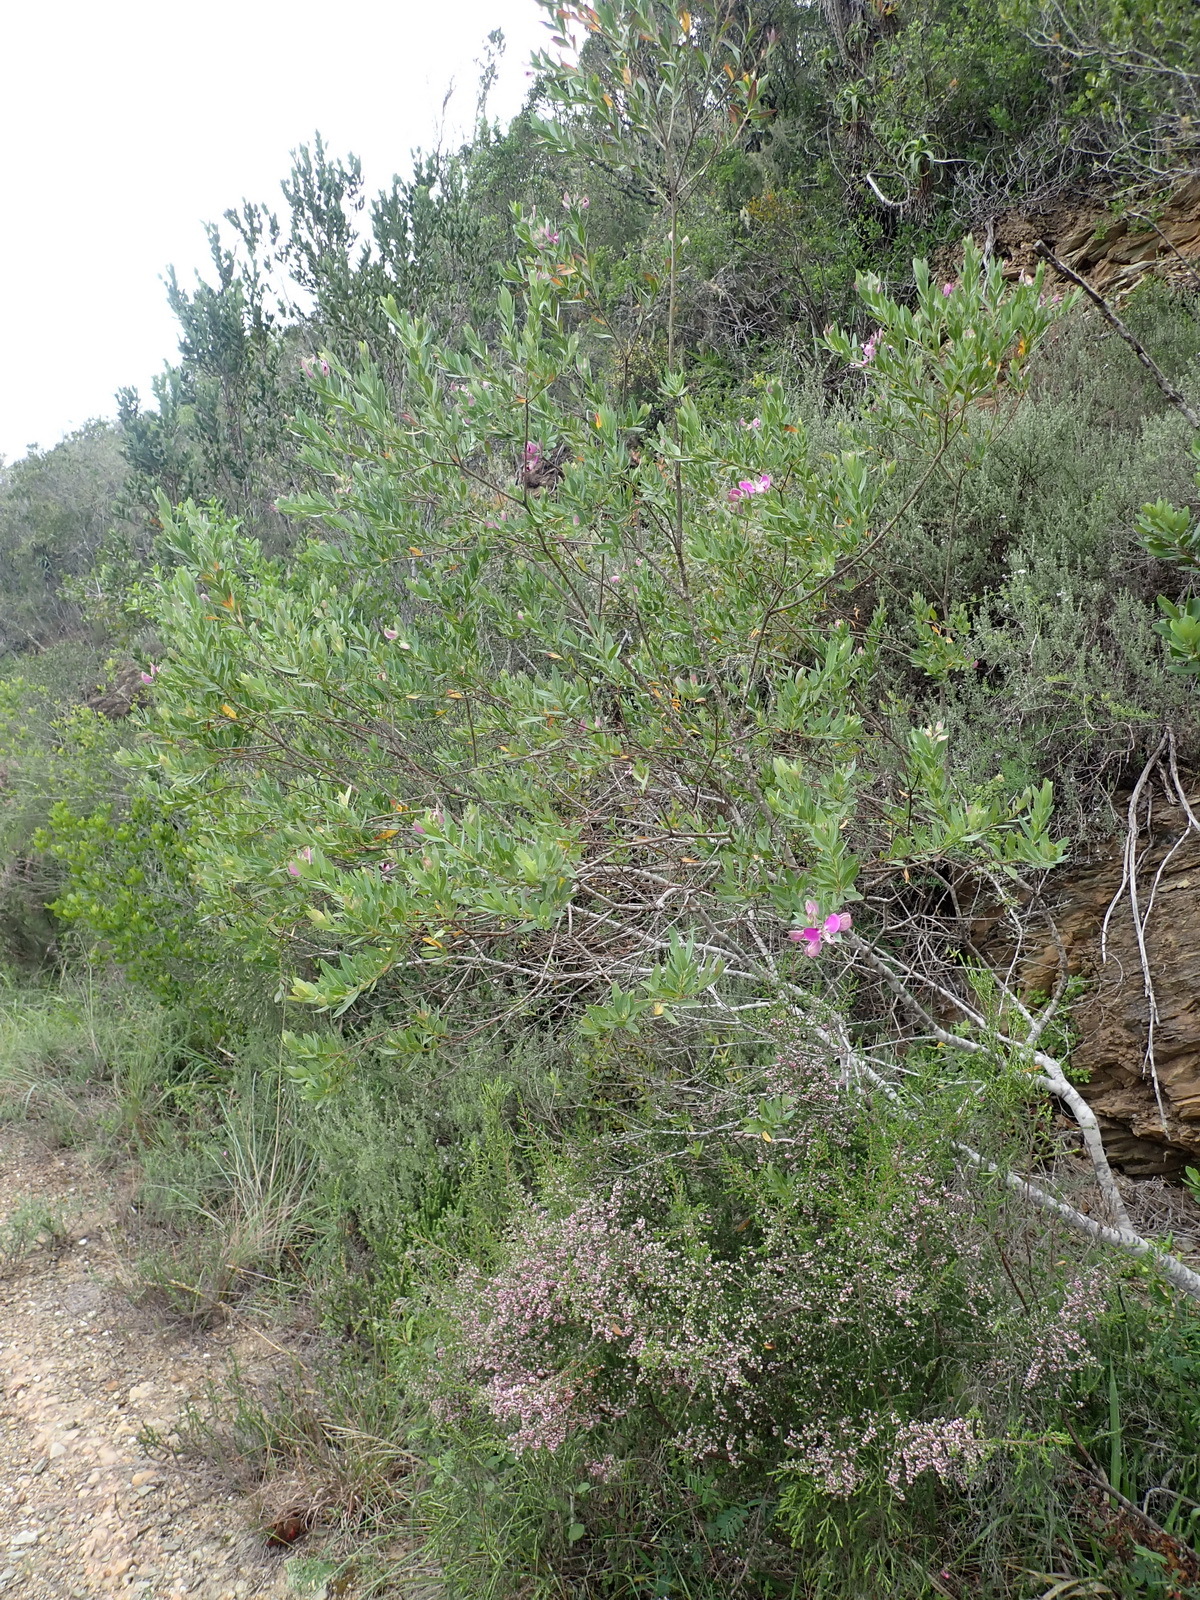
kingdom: Plantae
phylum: Tracheophyta
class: Magnoliopsida
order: Fabales
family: Polygalaceae
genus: Polygala
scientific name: Polygala myrtifolia
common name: Myrtle-leaf milkwort
